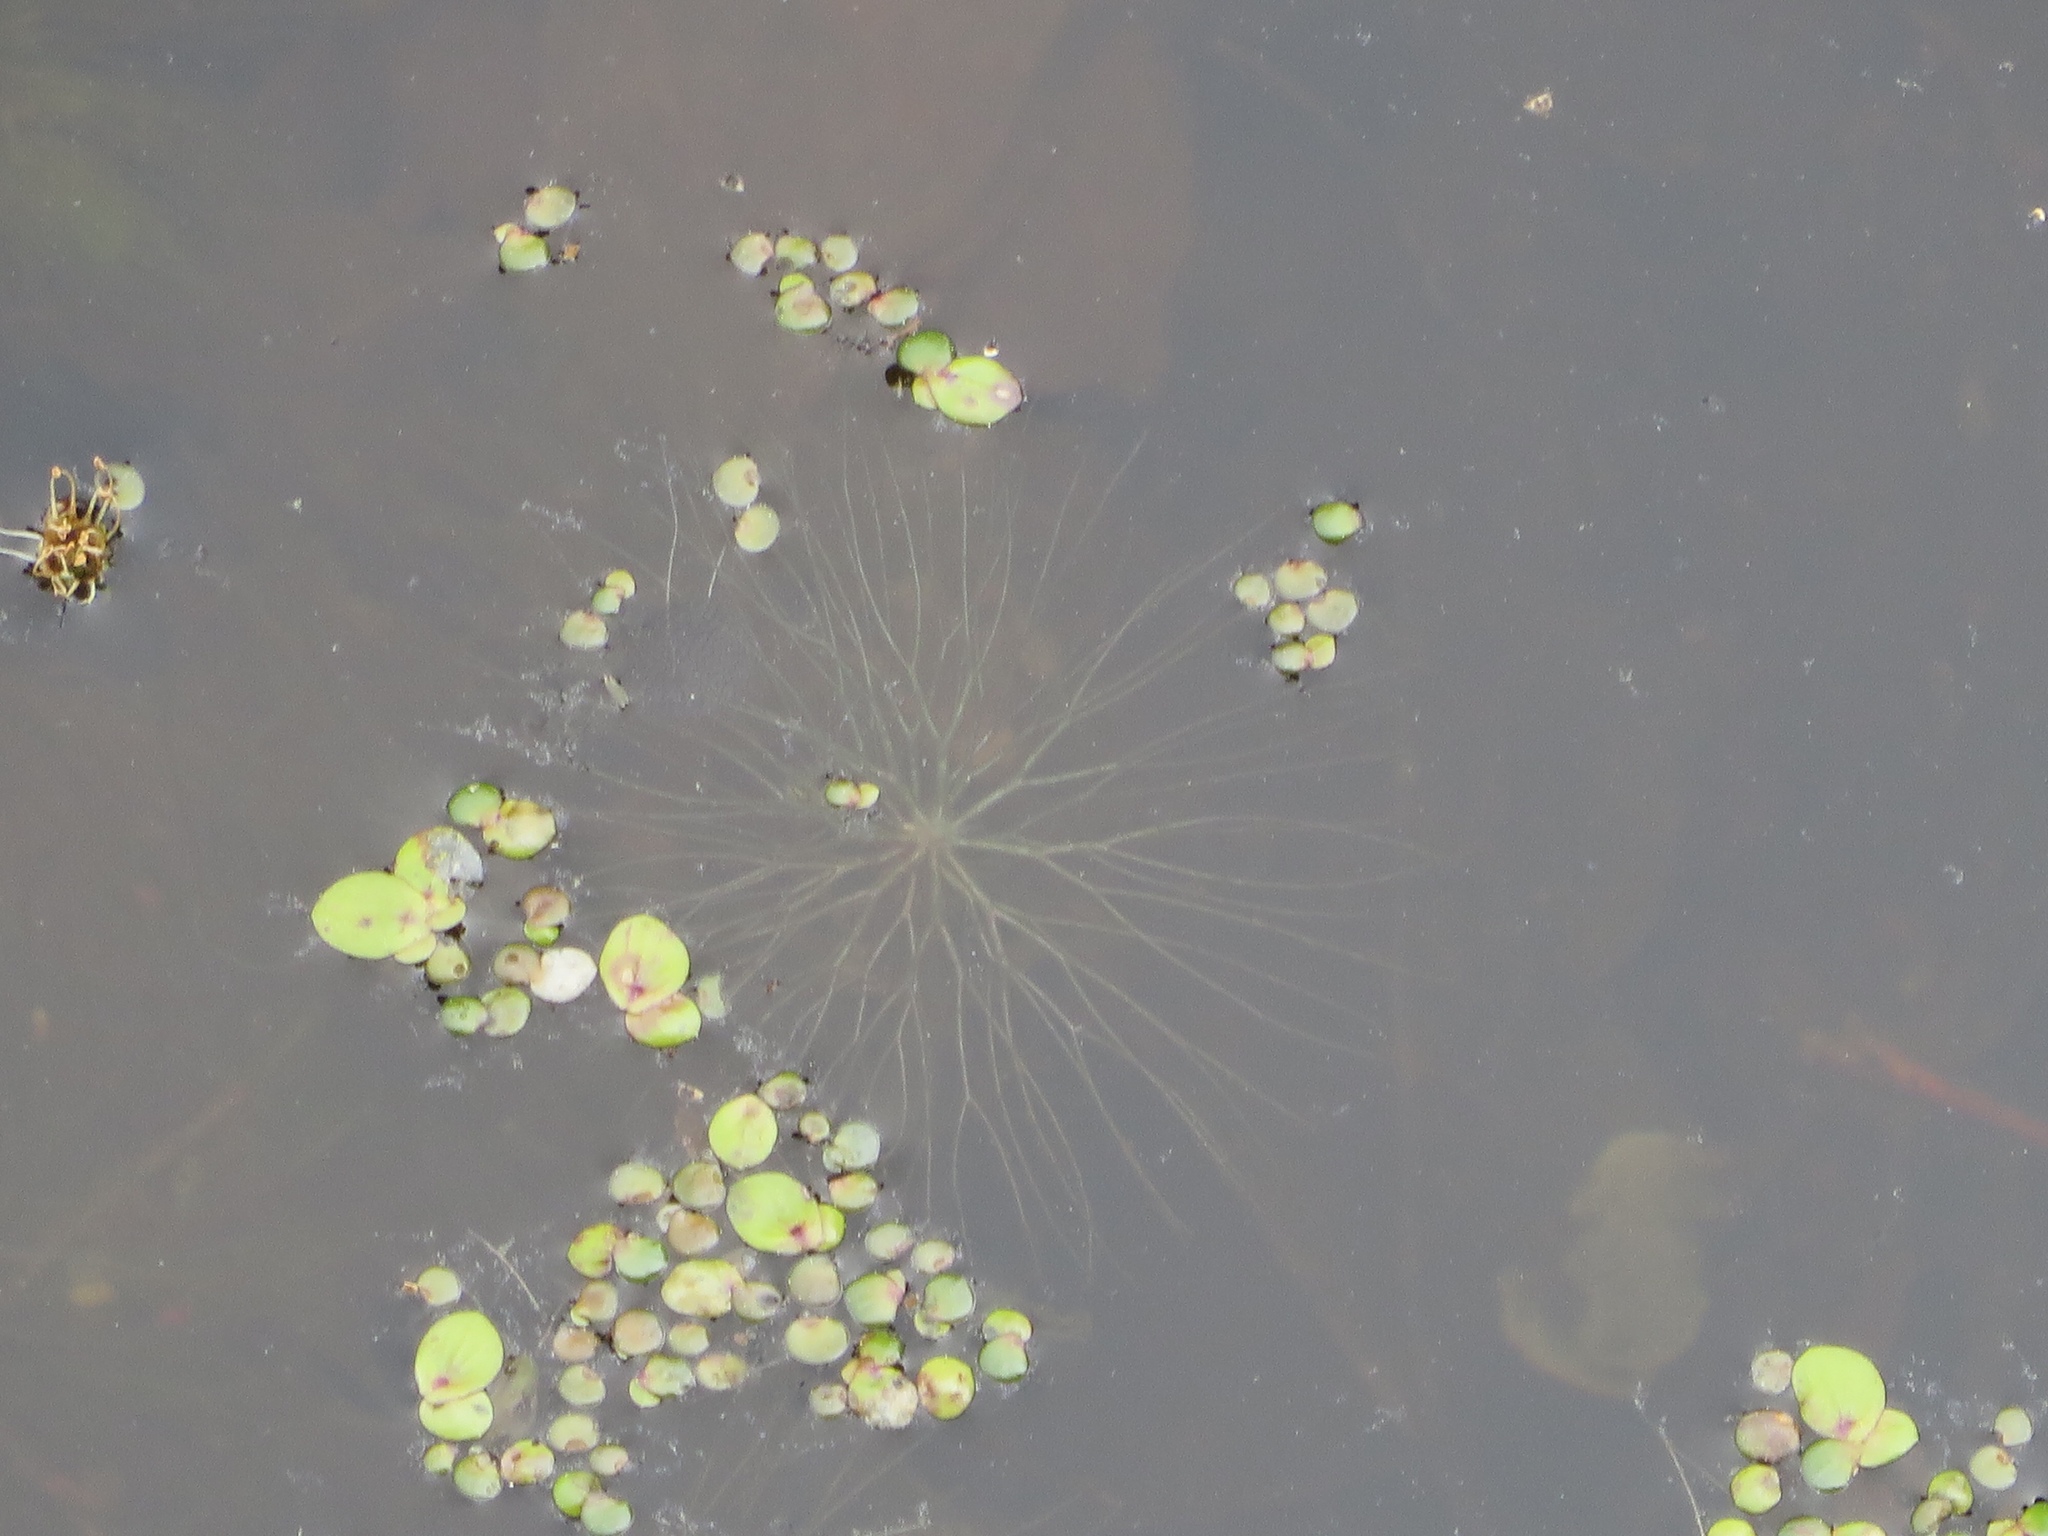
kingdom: Plantae
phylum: Tracheophyta
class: Liliopsida
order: Alismatales
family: Araceae
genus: Spirodela
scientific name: Spirodela polyrhiza
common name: Great duckweed
